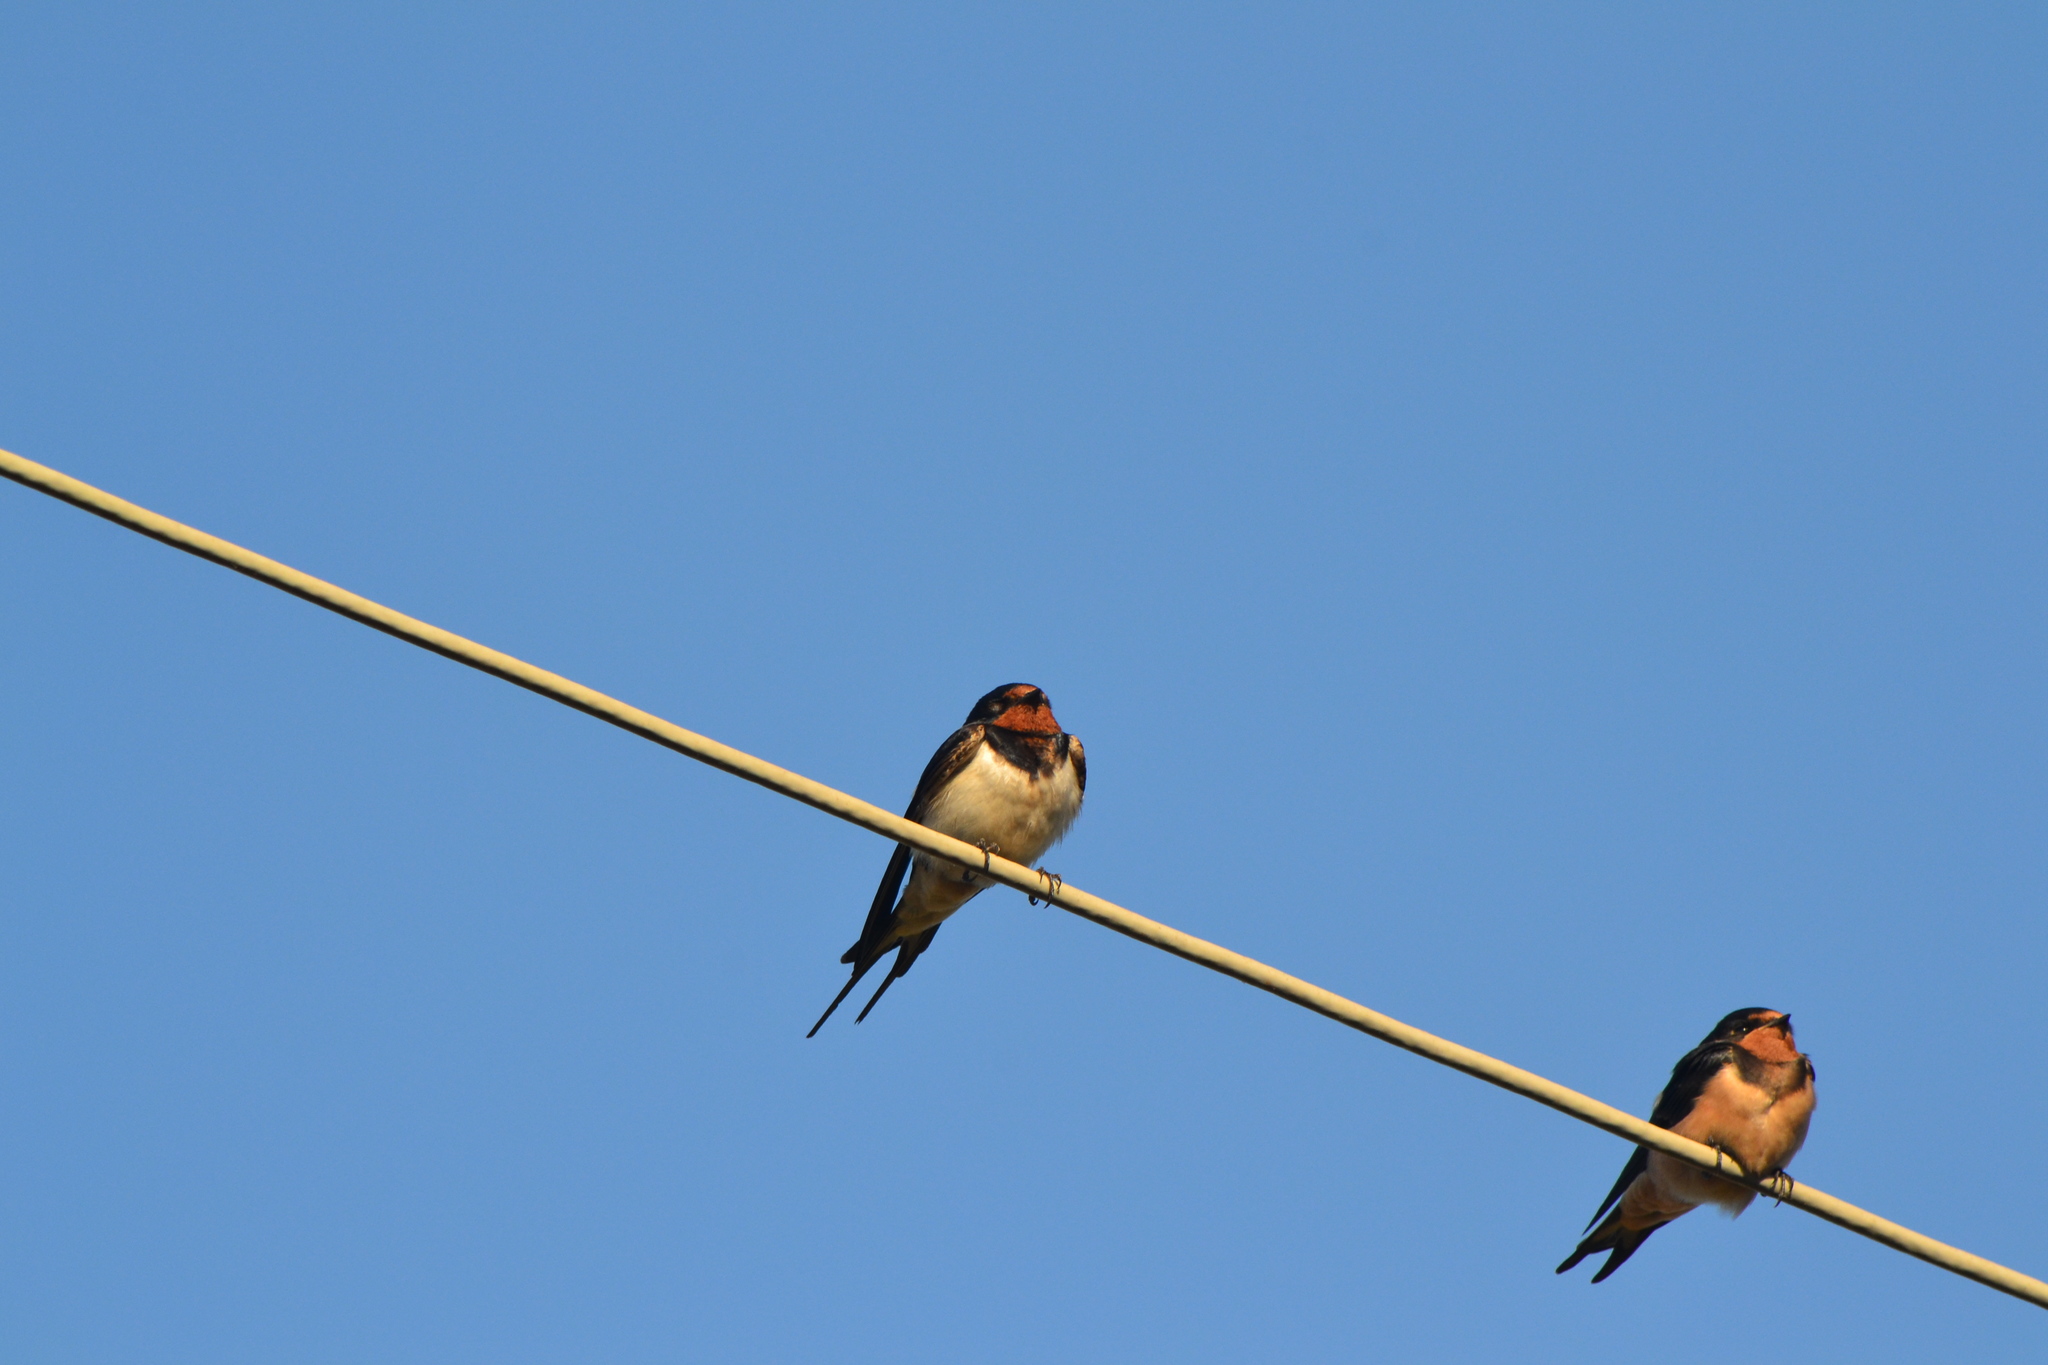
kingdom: Animalia
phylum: Chordata
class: Aves
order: Passeriformes
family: Hirundinidae
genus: Hirundo
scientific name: Hirundo rustica
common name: Barn swallow
